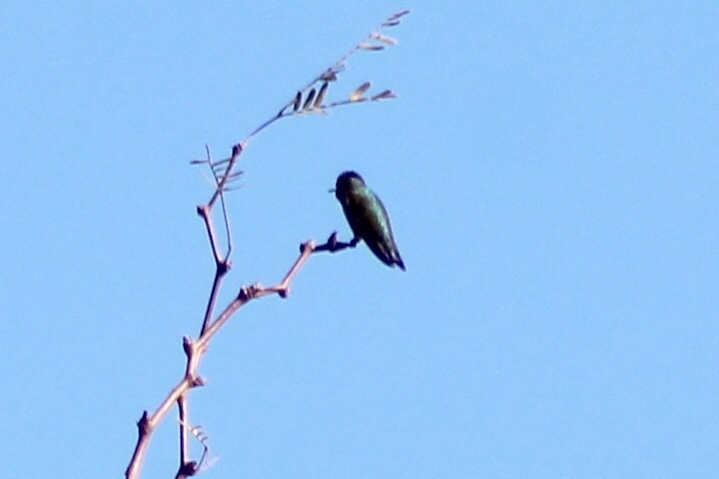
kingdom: Animalia
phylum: Chordata
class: Aves
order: Apodiformes
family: Trochilidae
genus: Calypte
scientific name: Calypte anna
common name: Anna's hummingbird
